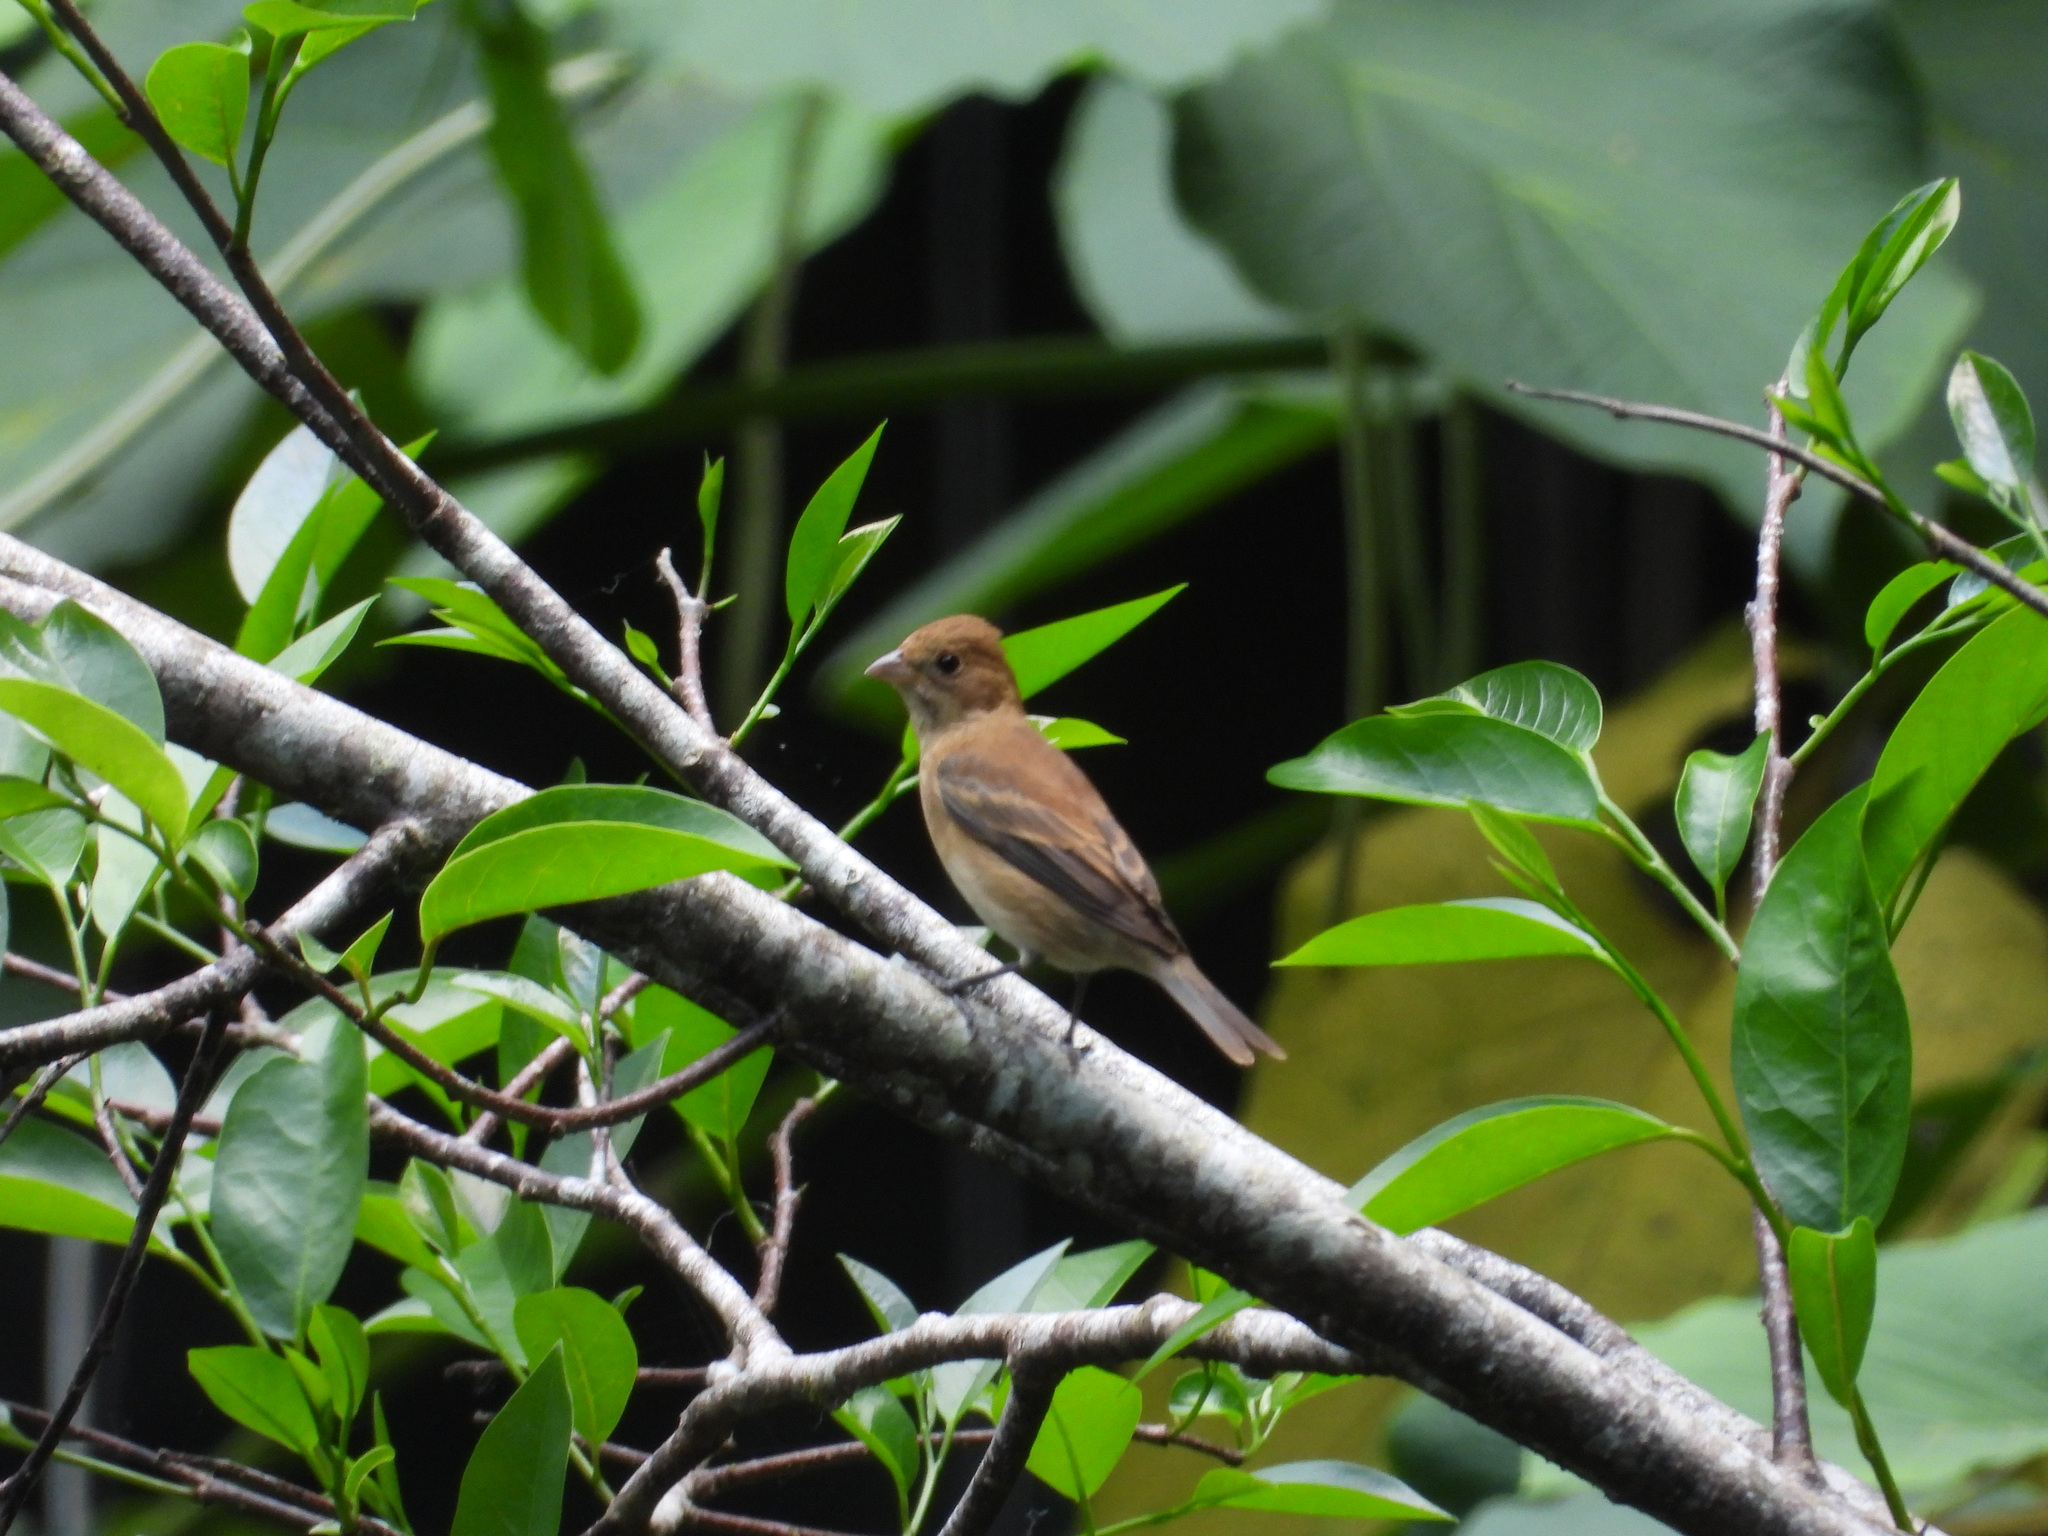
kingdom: Animalia
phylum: Chordata
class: Aves
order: Passeriformes
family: Cardinalidae
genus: Passerina
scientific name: Passerina cyanea
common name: Indigo bunting
